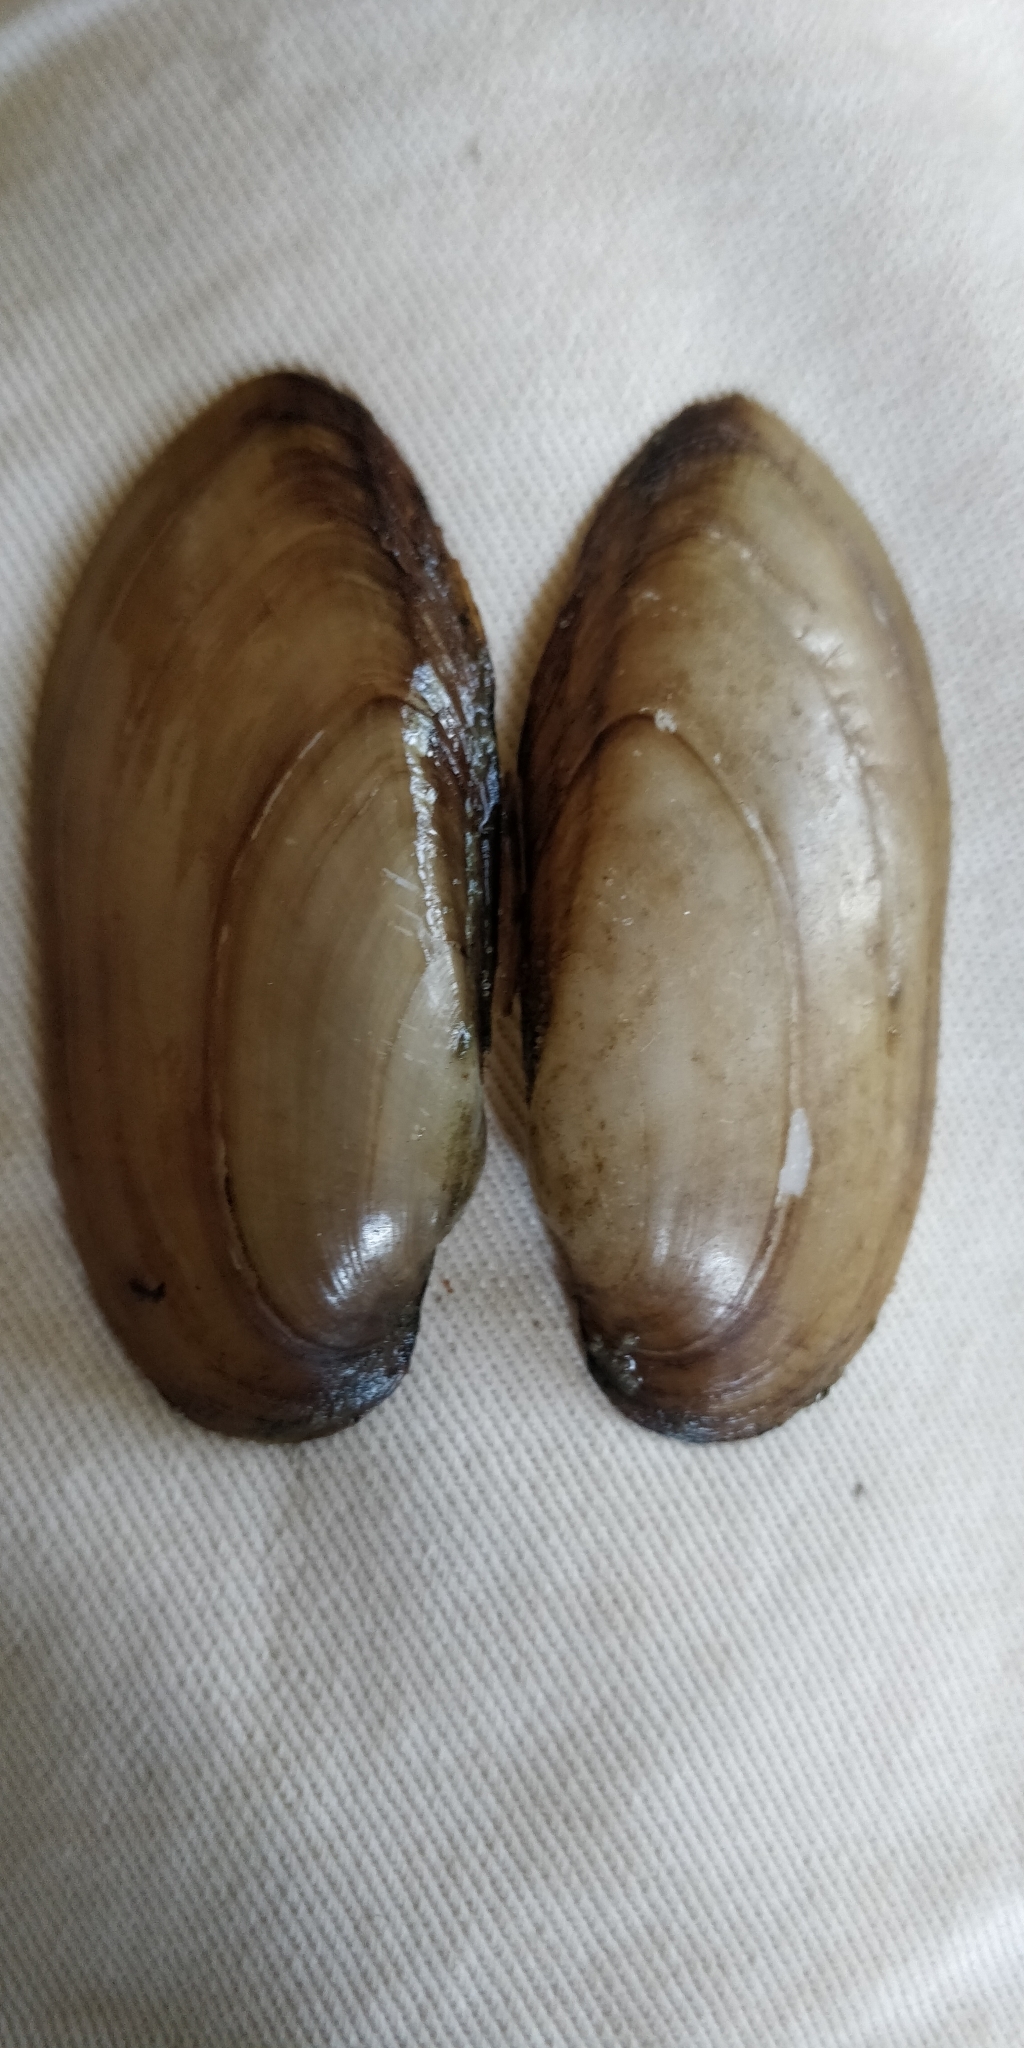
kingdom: Animalia
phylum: Mollusca
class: Bivalvia
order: Unionida
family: Unionidae
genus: Lampsilis
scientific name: Lampsilis teres
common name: Yellow sandshell
